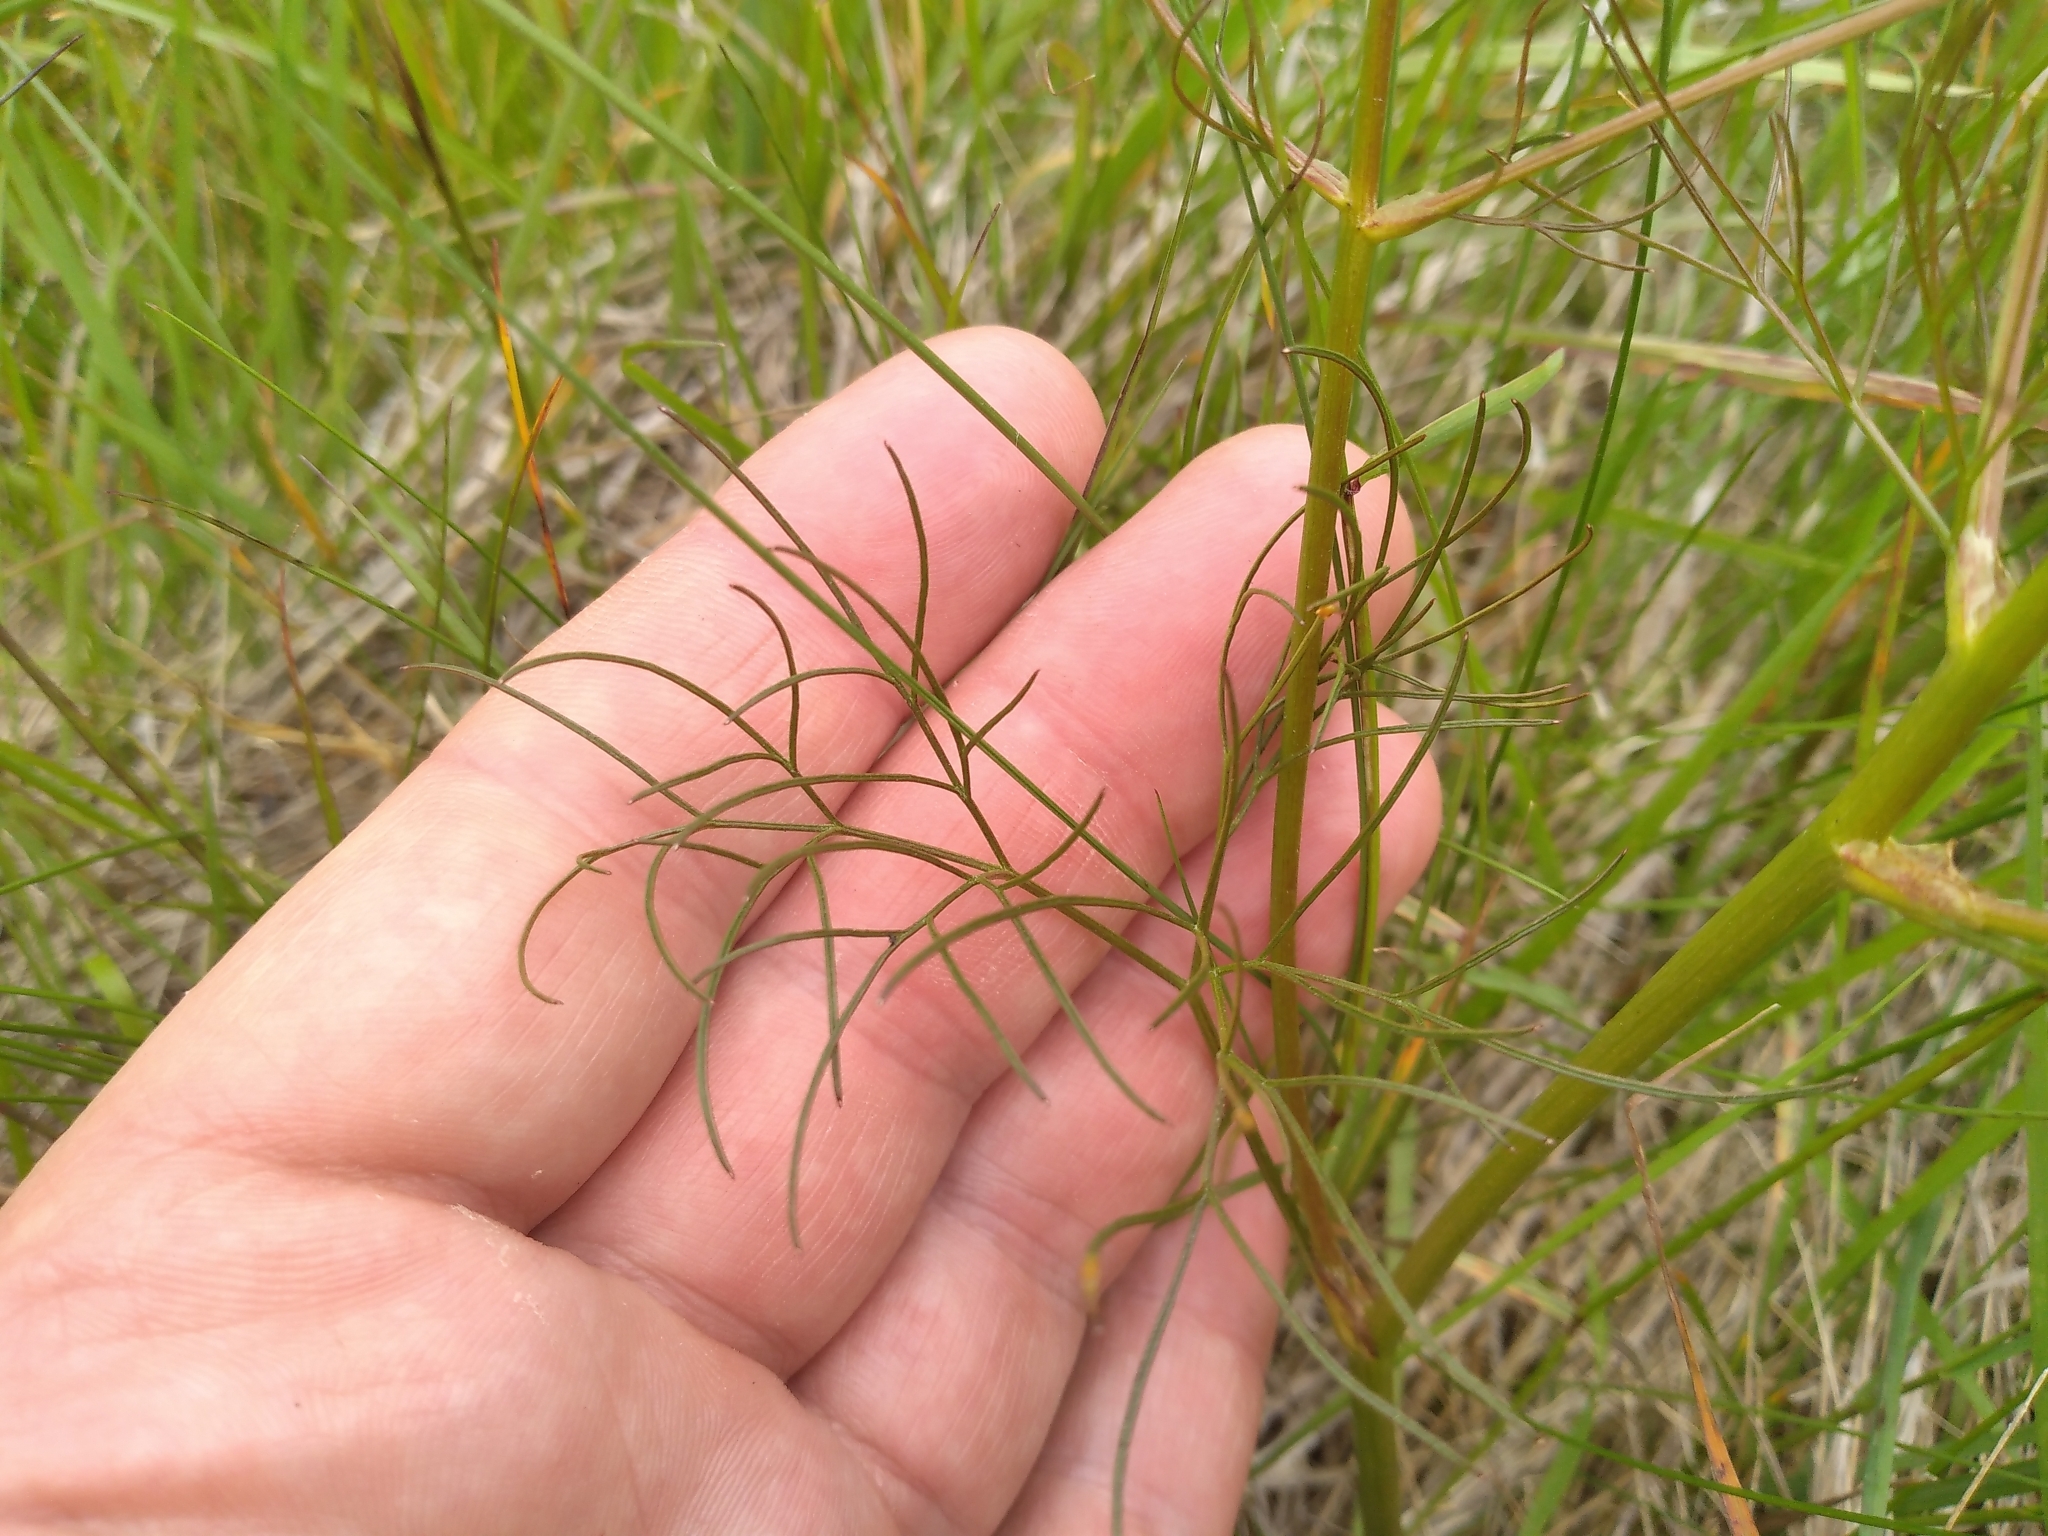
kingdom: Plantae
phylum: Tracheophyta
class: Magnoliopsida
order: Apiales
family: Apiaceae
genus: Anisotome
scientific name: Anisotome filifolia
